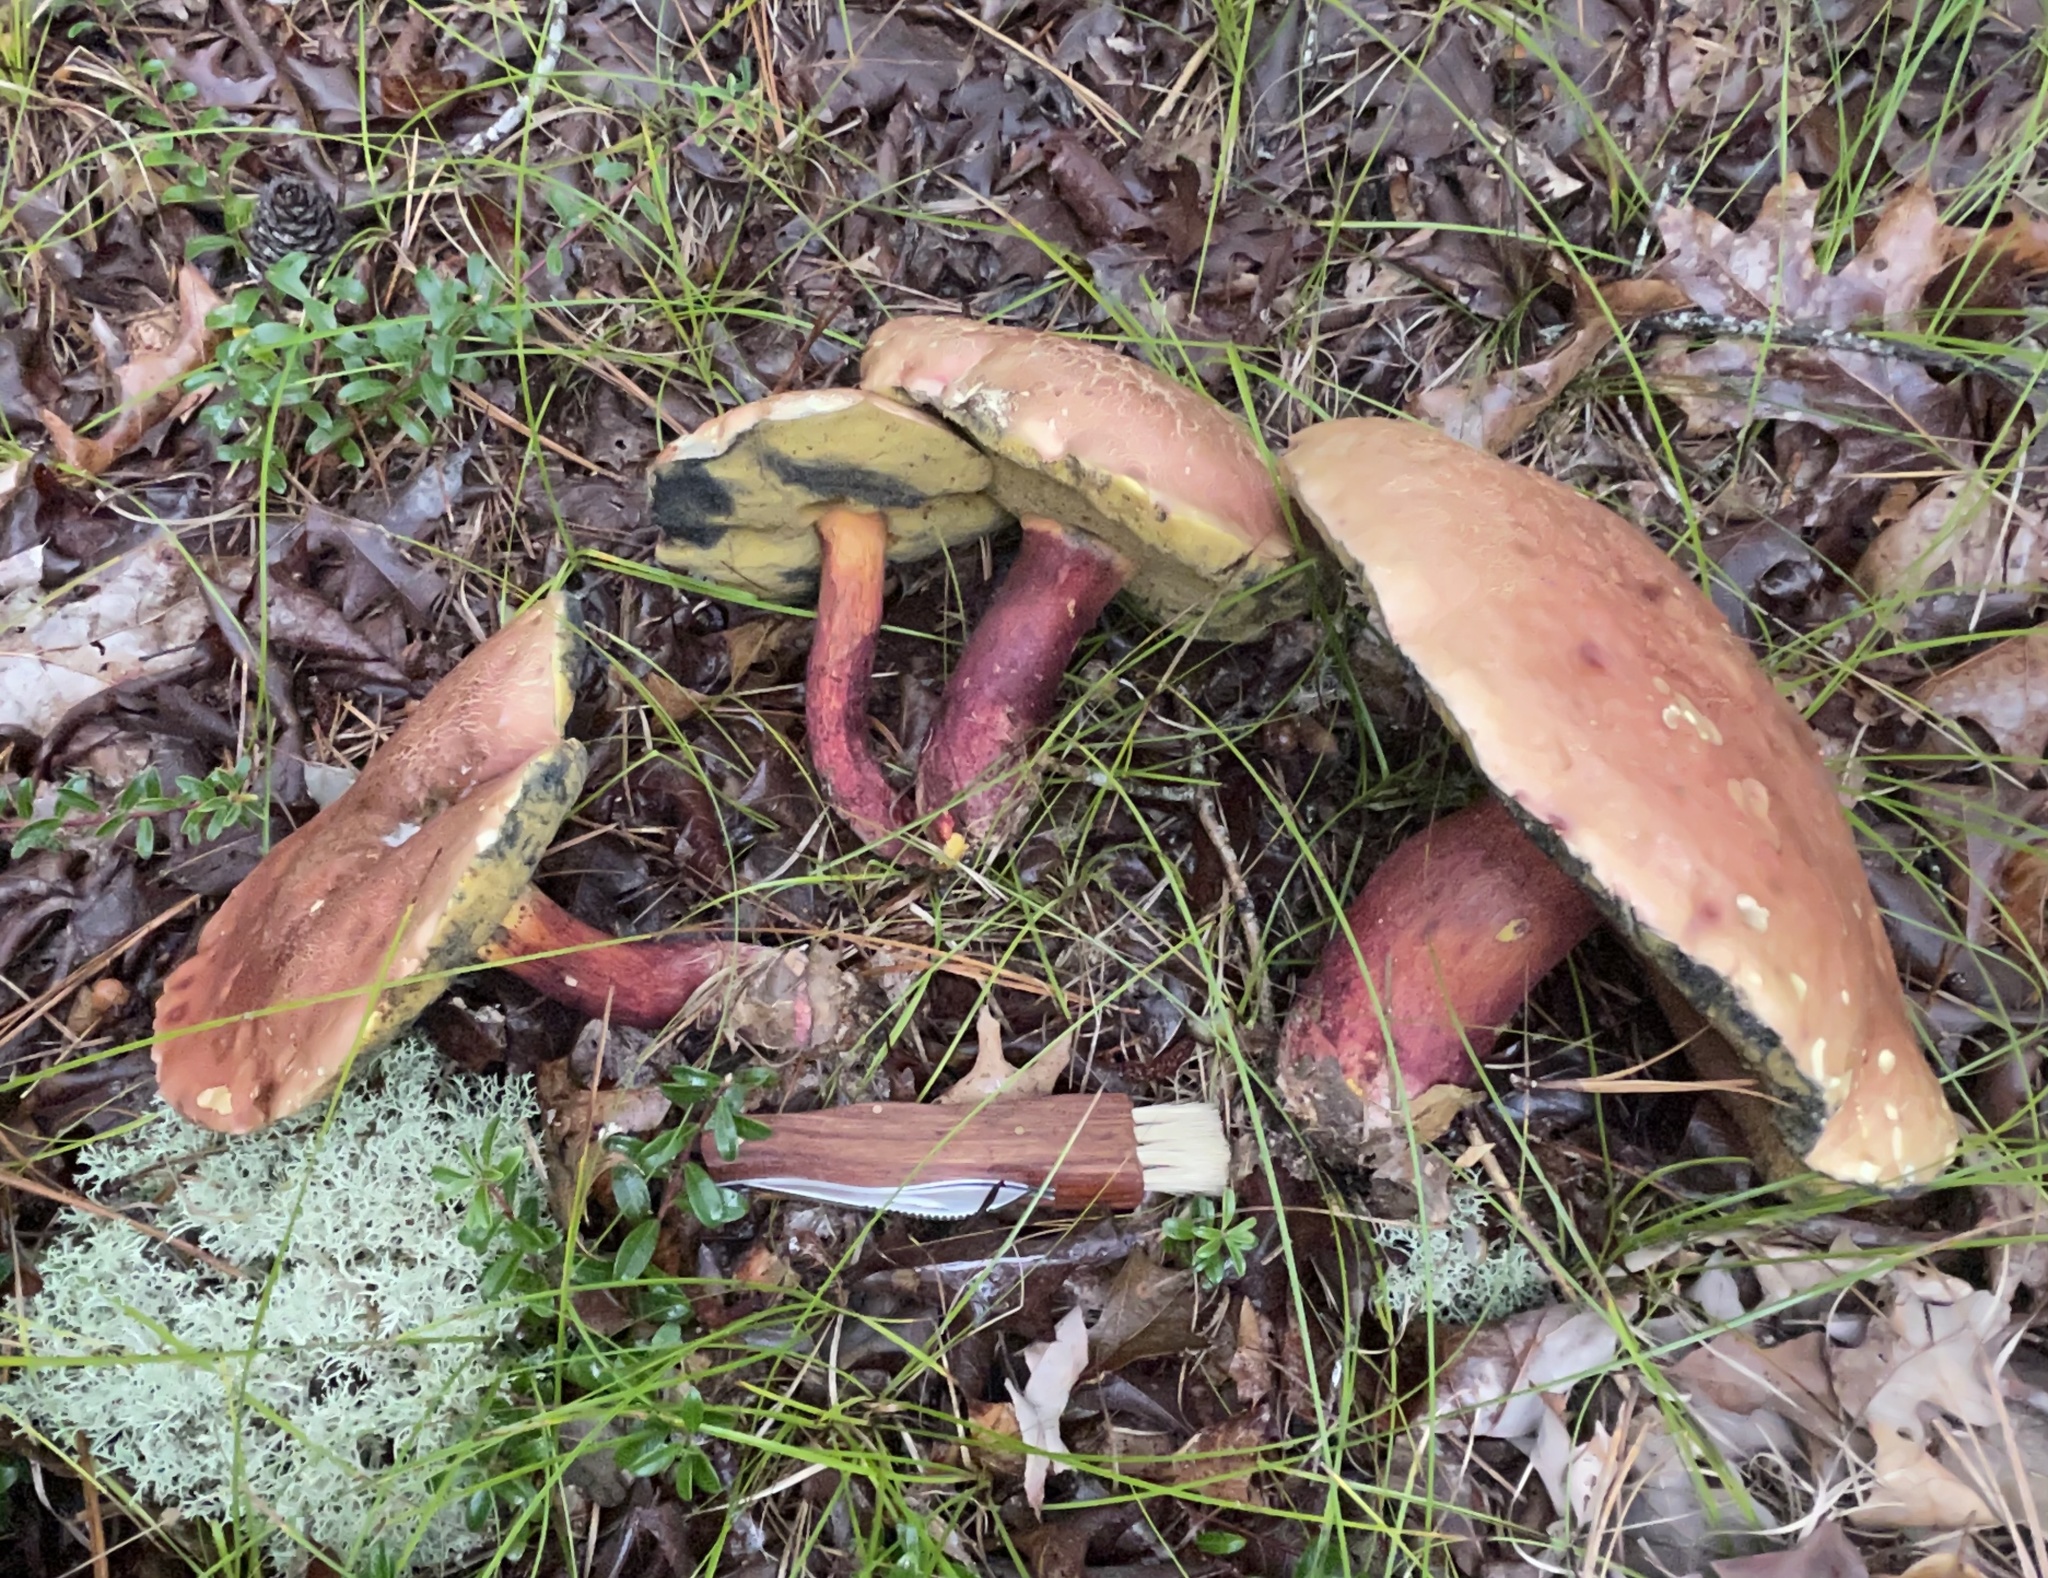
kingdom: Fungi
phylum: Basidiomycota
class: Agaricomycetes
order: Boletales
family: Boletaceae
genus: Baorangia
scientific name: Baorangia bicolor
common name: Two-colored bolete
